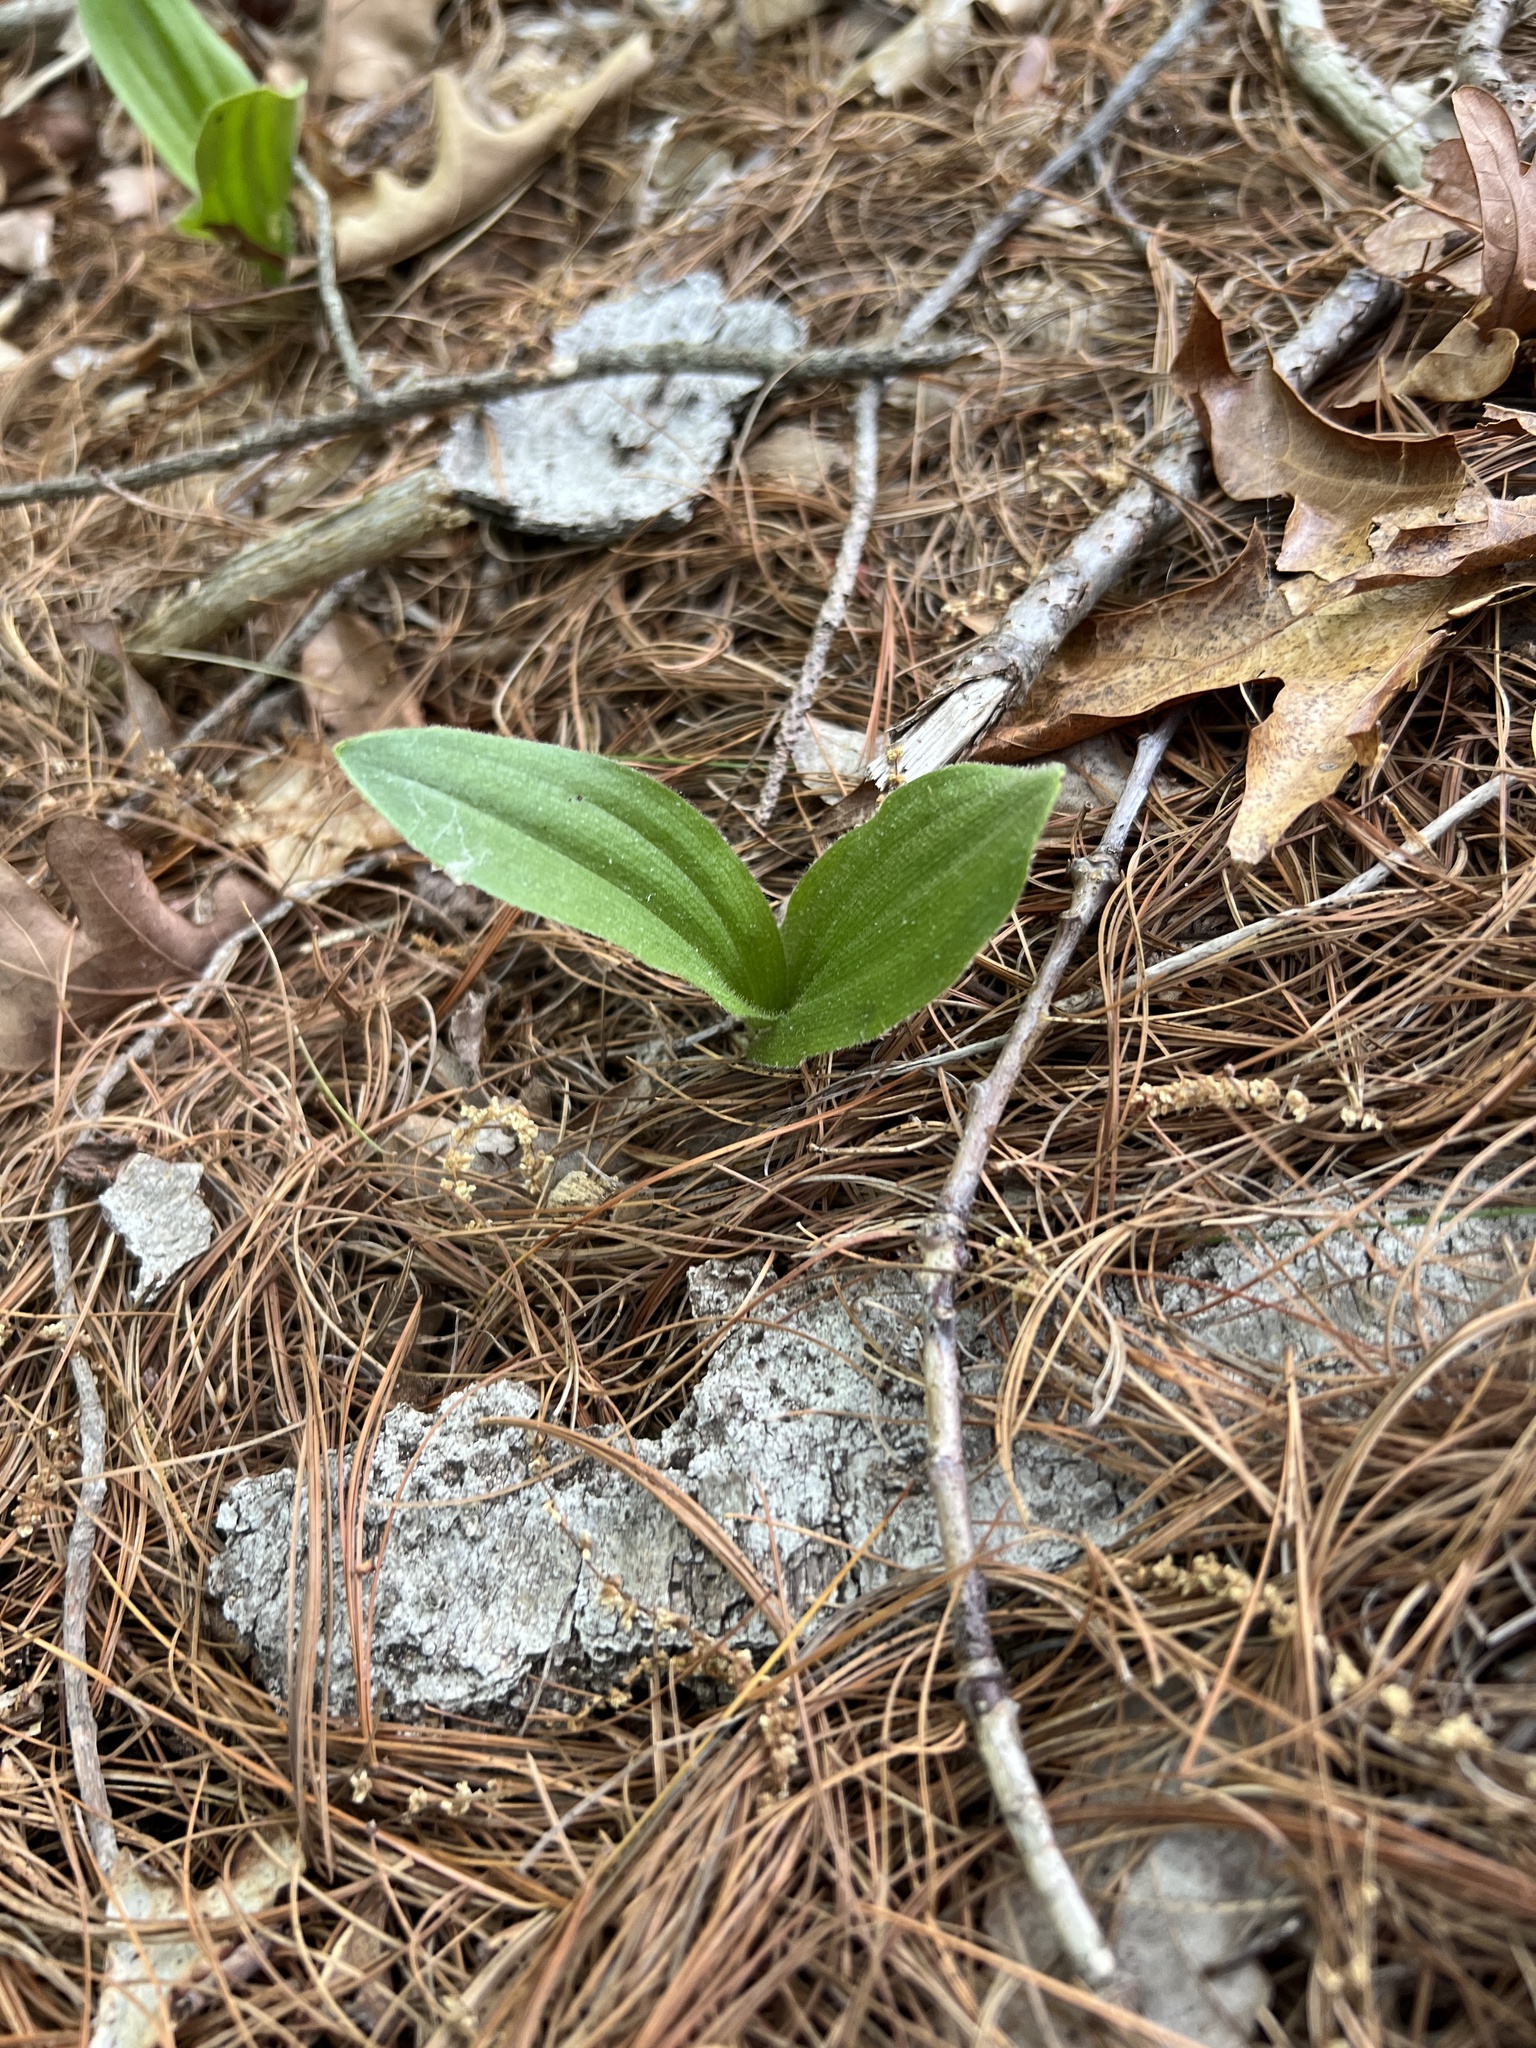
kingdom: Plantae
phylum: Tracheophyta
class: Liliopsida
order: Asparagales
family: Orchidaceae
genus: Cypripedium
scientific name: Cypripedium acaule
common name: Pink lady's-slipper
